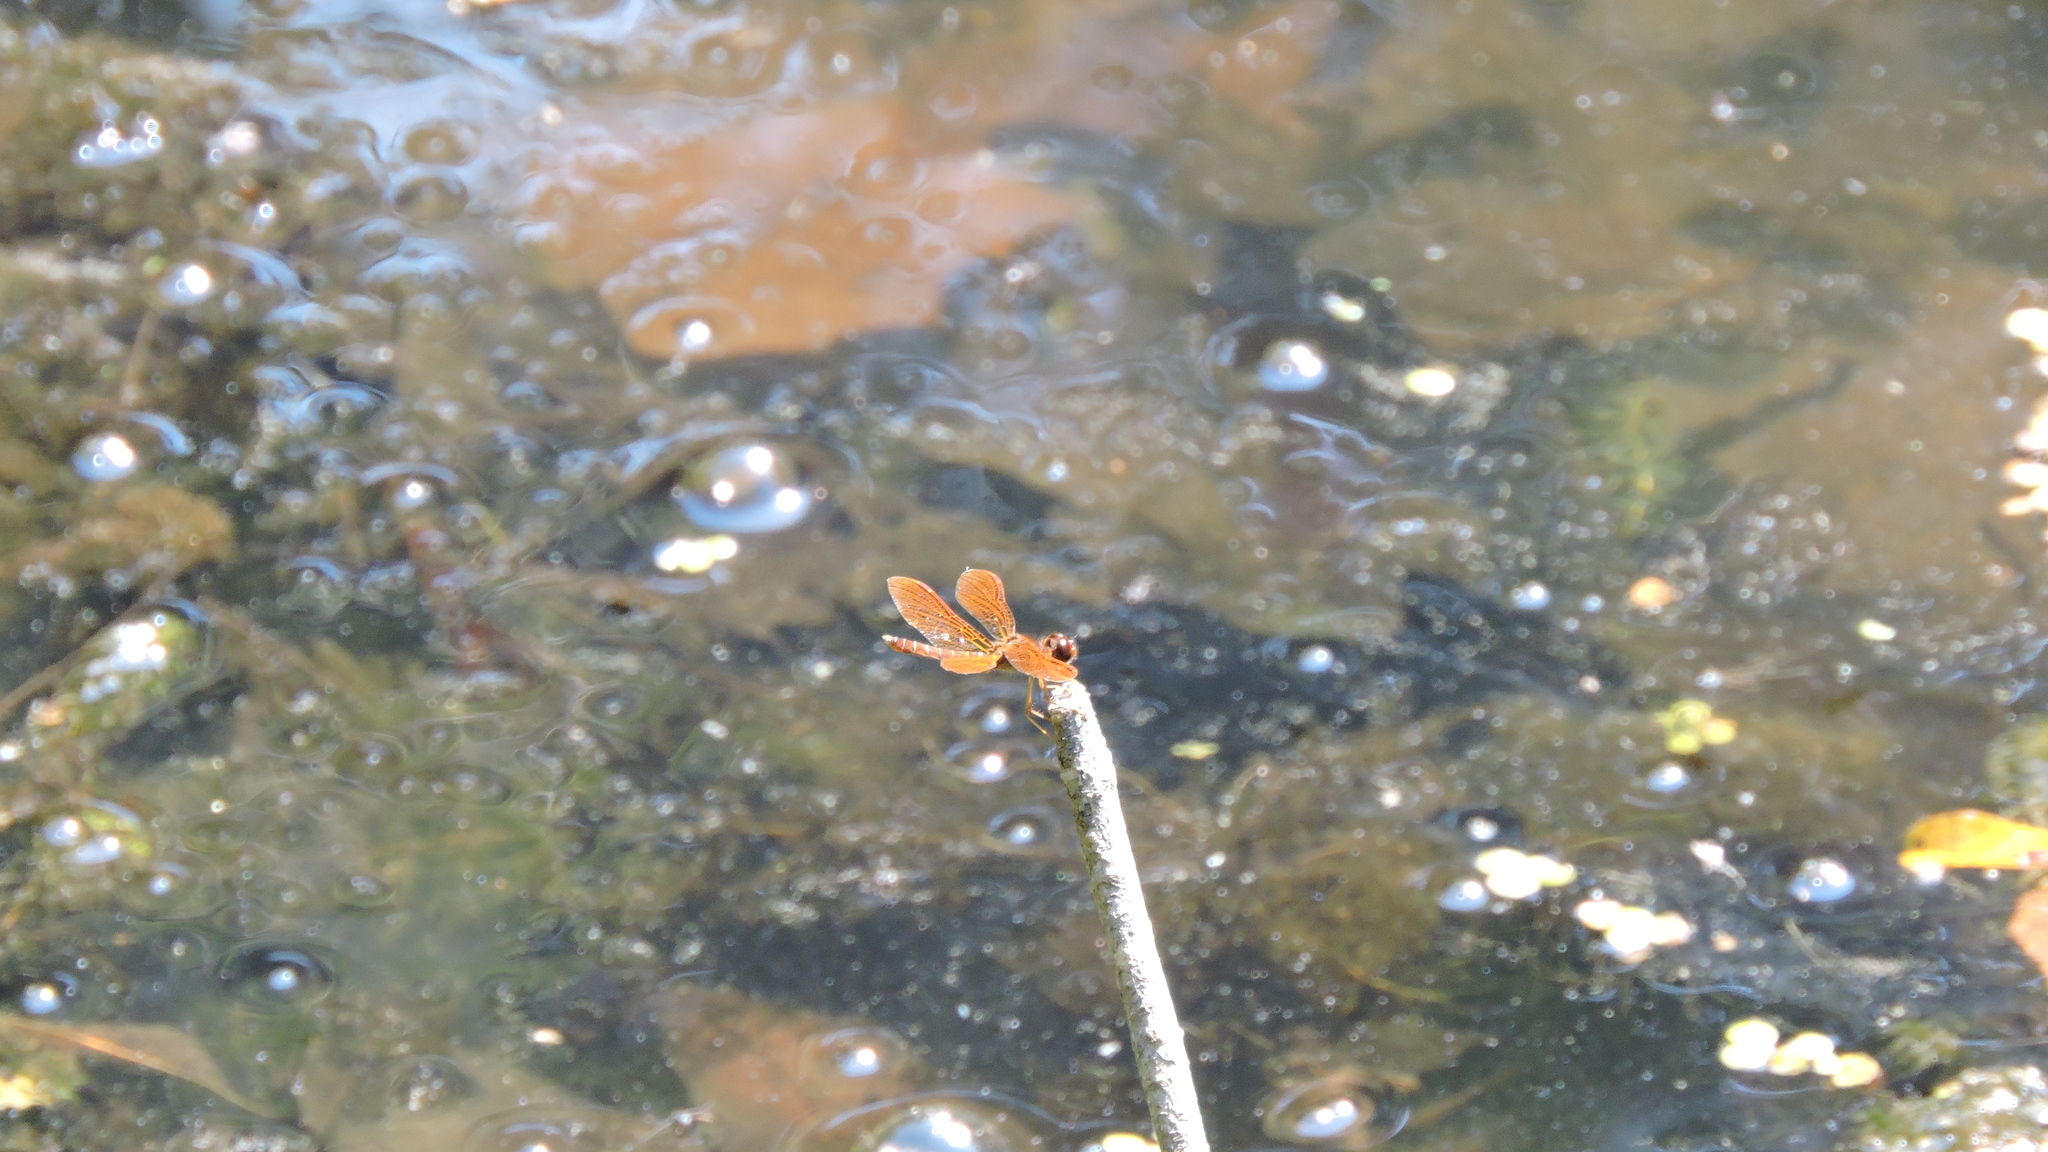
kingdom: Animalia
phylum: Arthropoda
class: Insecta
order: Odonata
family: Libellulidae
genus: Perithemis
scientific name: Perithemis tenera
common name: Eastern amberwing
